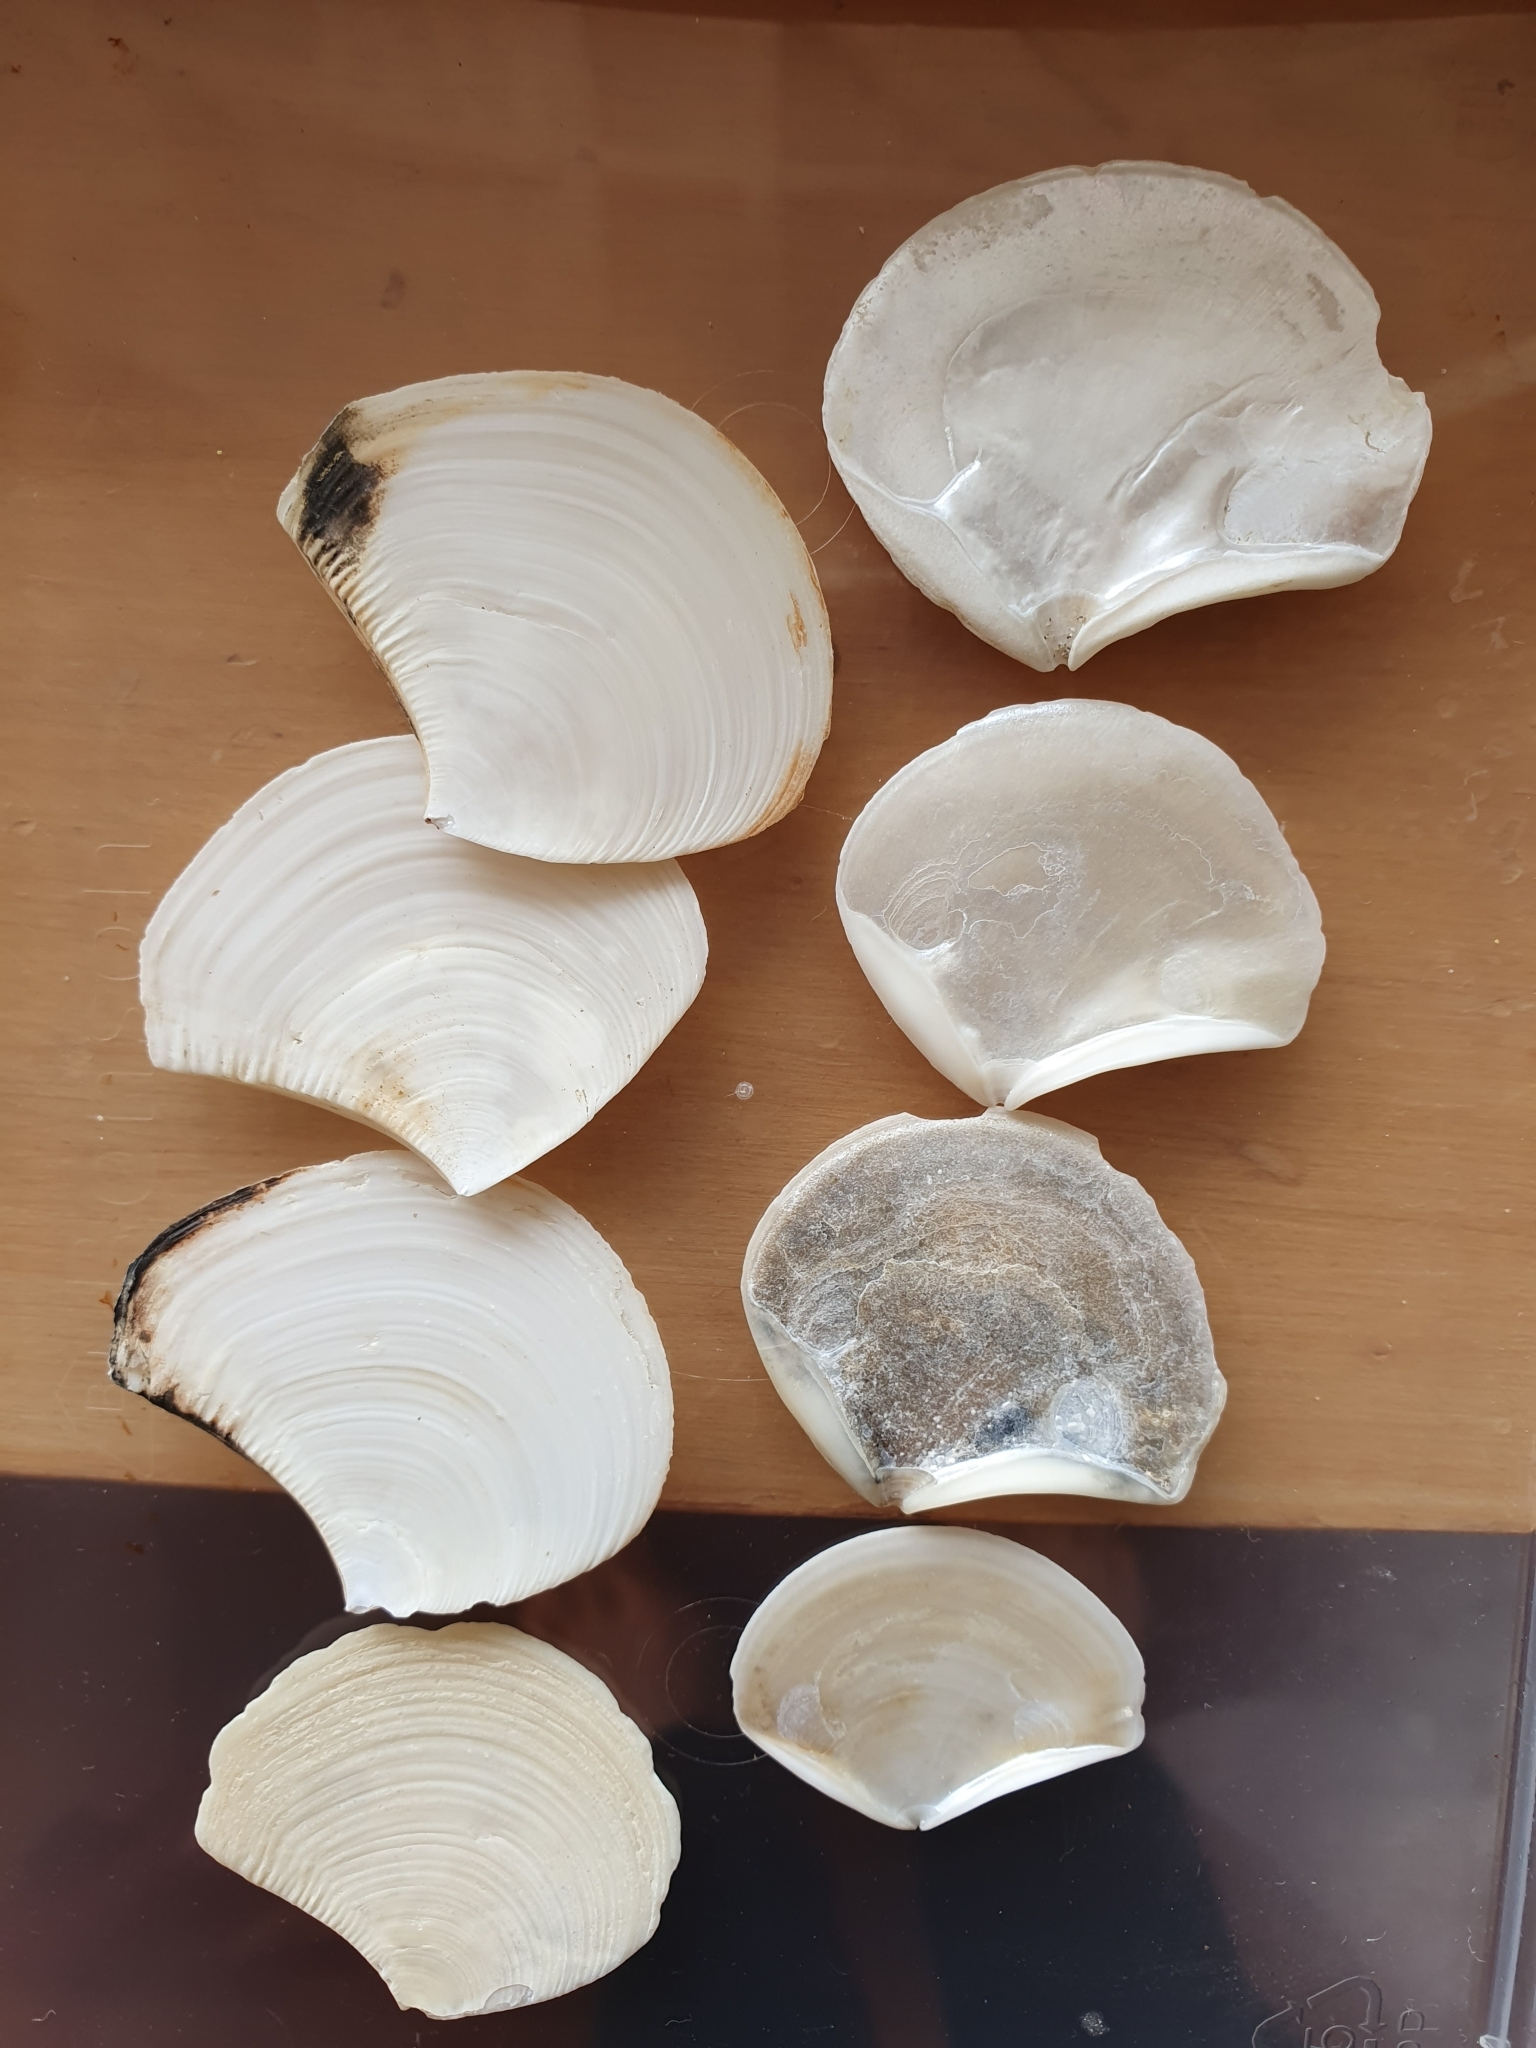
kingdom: Animalia
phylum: Mollusca
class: Bivalvia
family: Myochamidae
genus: Myadora
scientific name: Myadora striata
